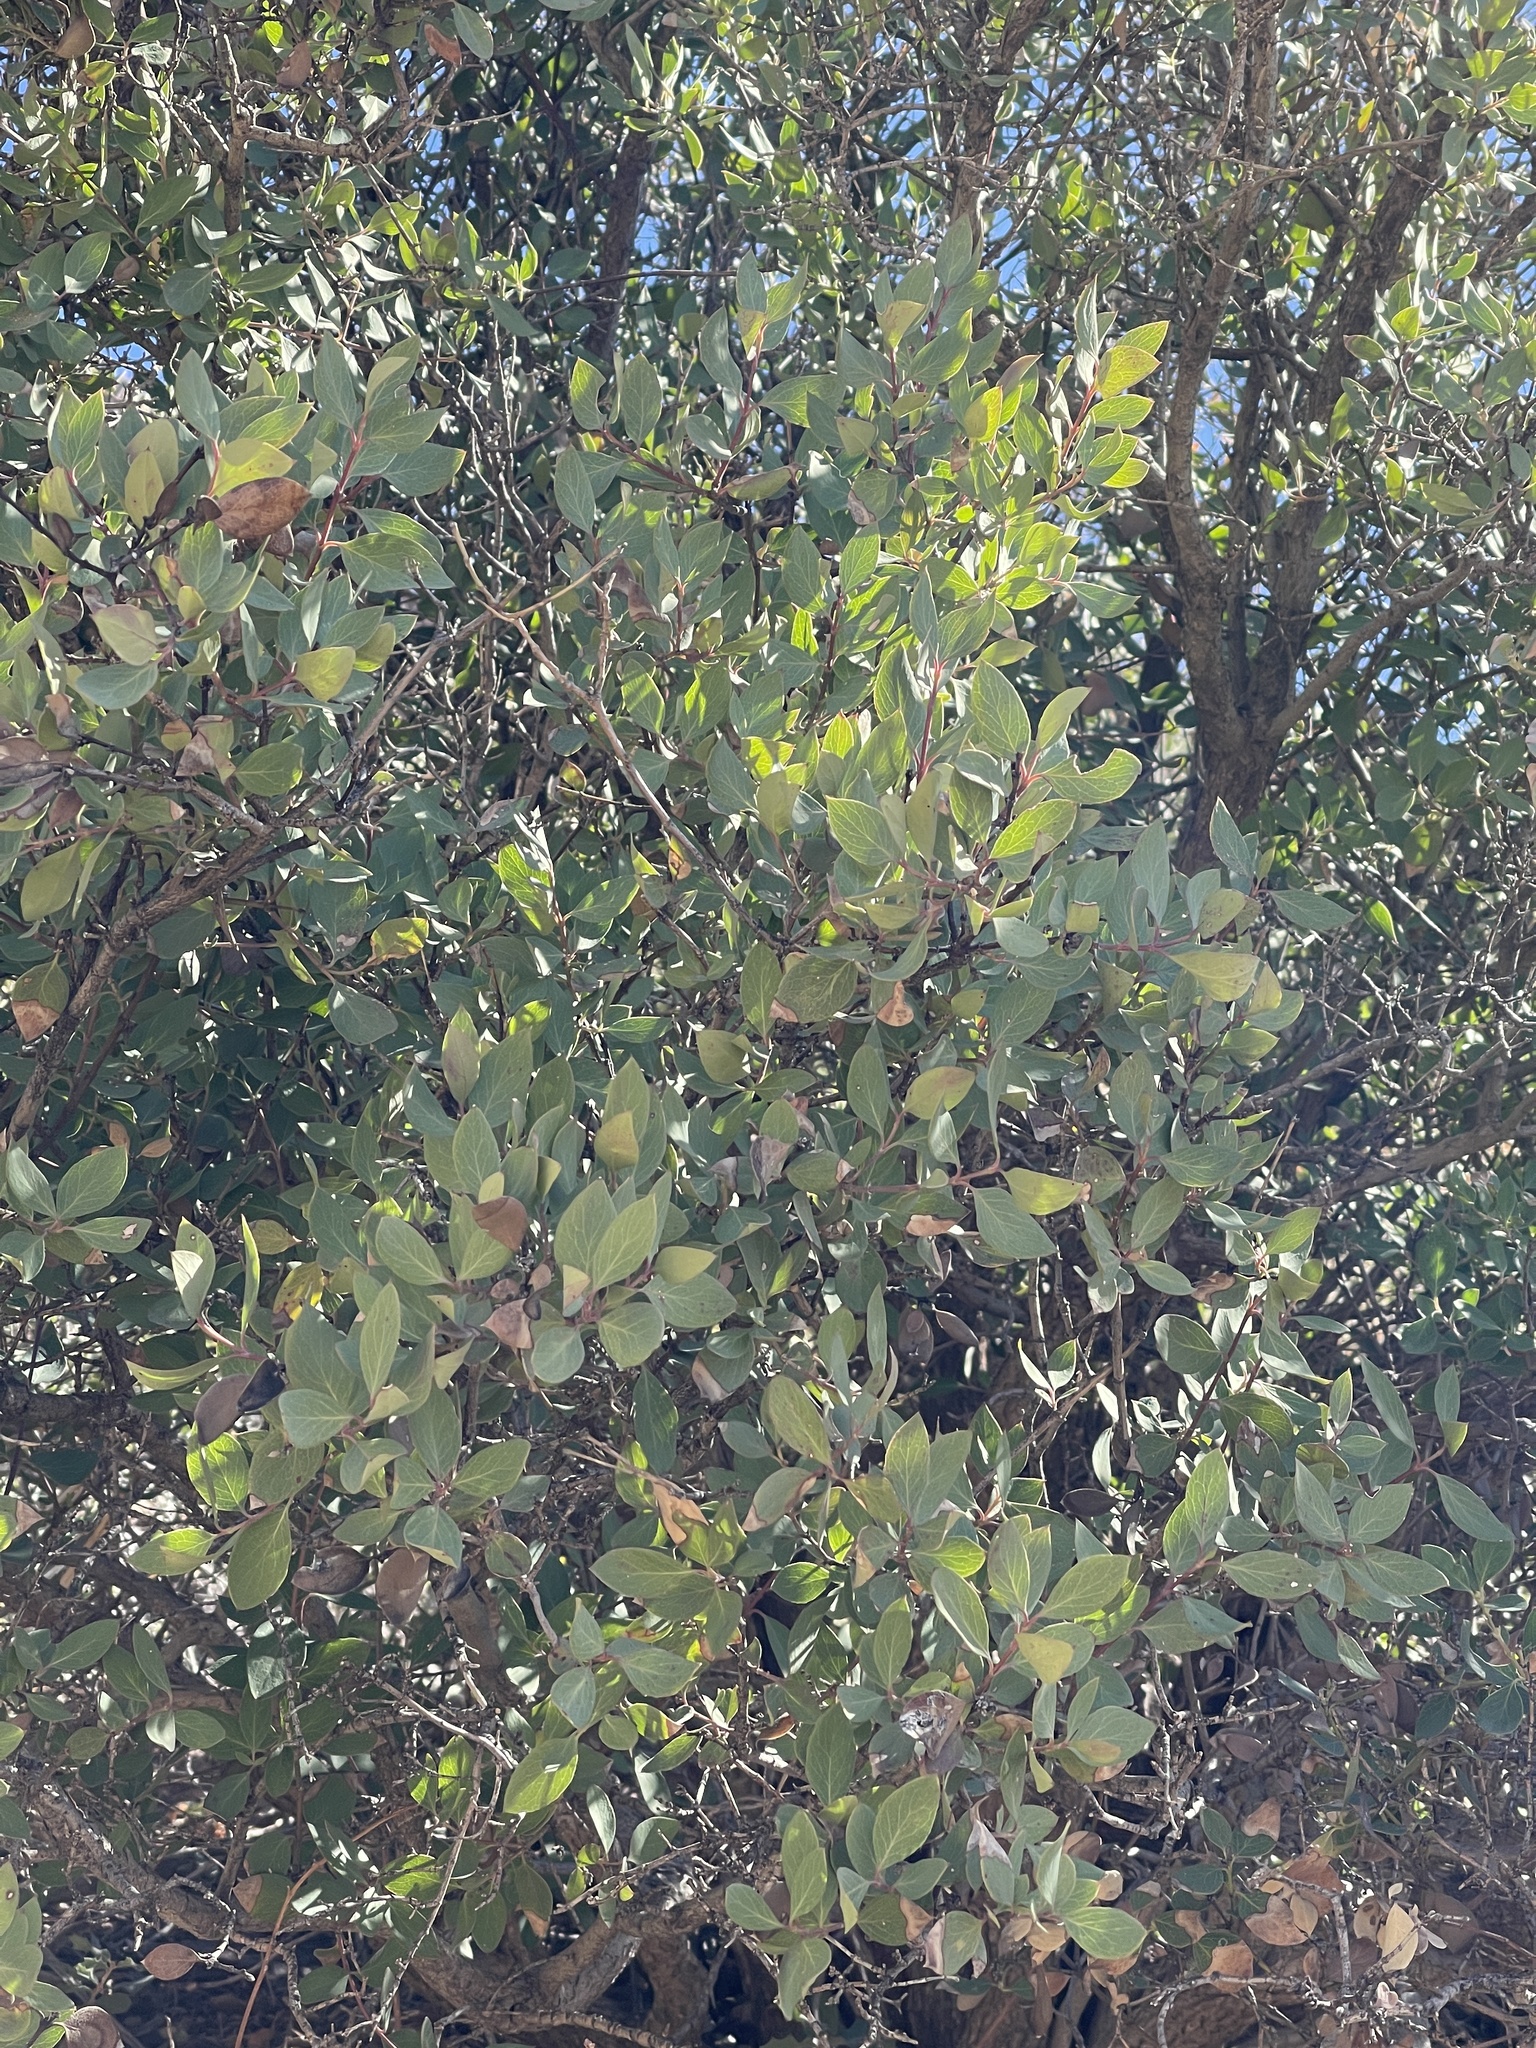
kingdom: Plantae
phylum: Tracheophyta
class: Magnoliopsida
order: Garryales
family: Garryaceae
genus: Garrya
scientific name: Garrya wrightii
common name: Wright's silktassel
